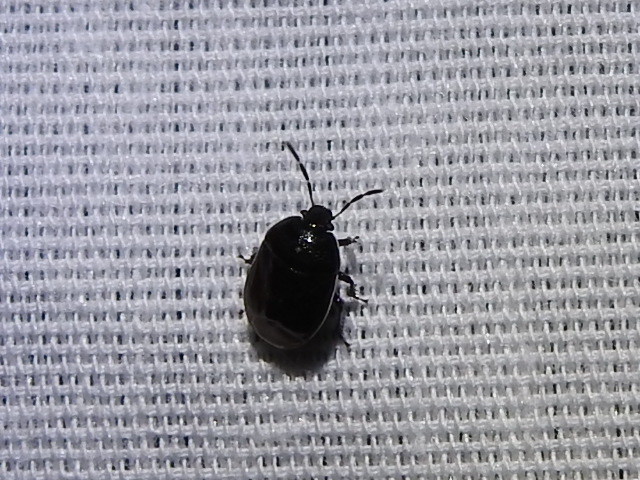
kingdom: Animalia
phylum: Arthropoda
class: Insecta
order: Hemiptera
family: Cydnidae
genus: Sehirus
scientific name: Sehirus cinctus
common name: White-margined burrower bug
